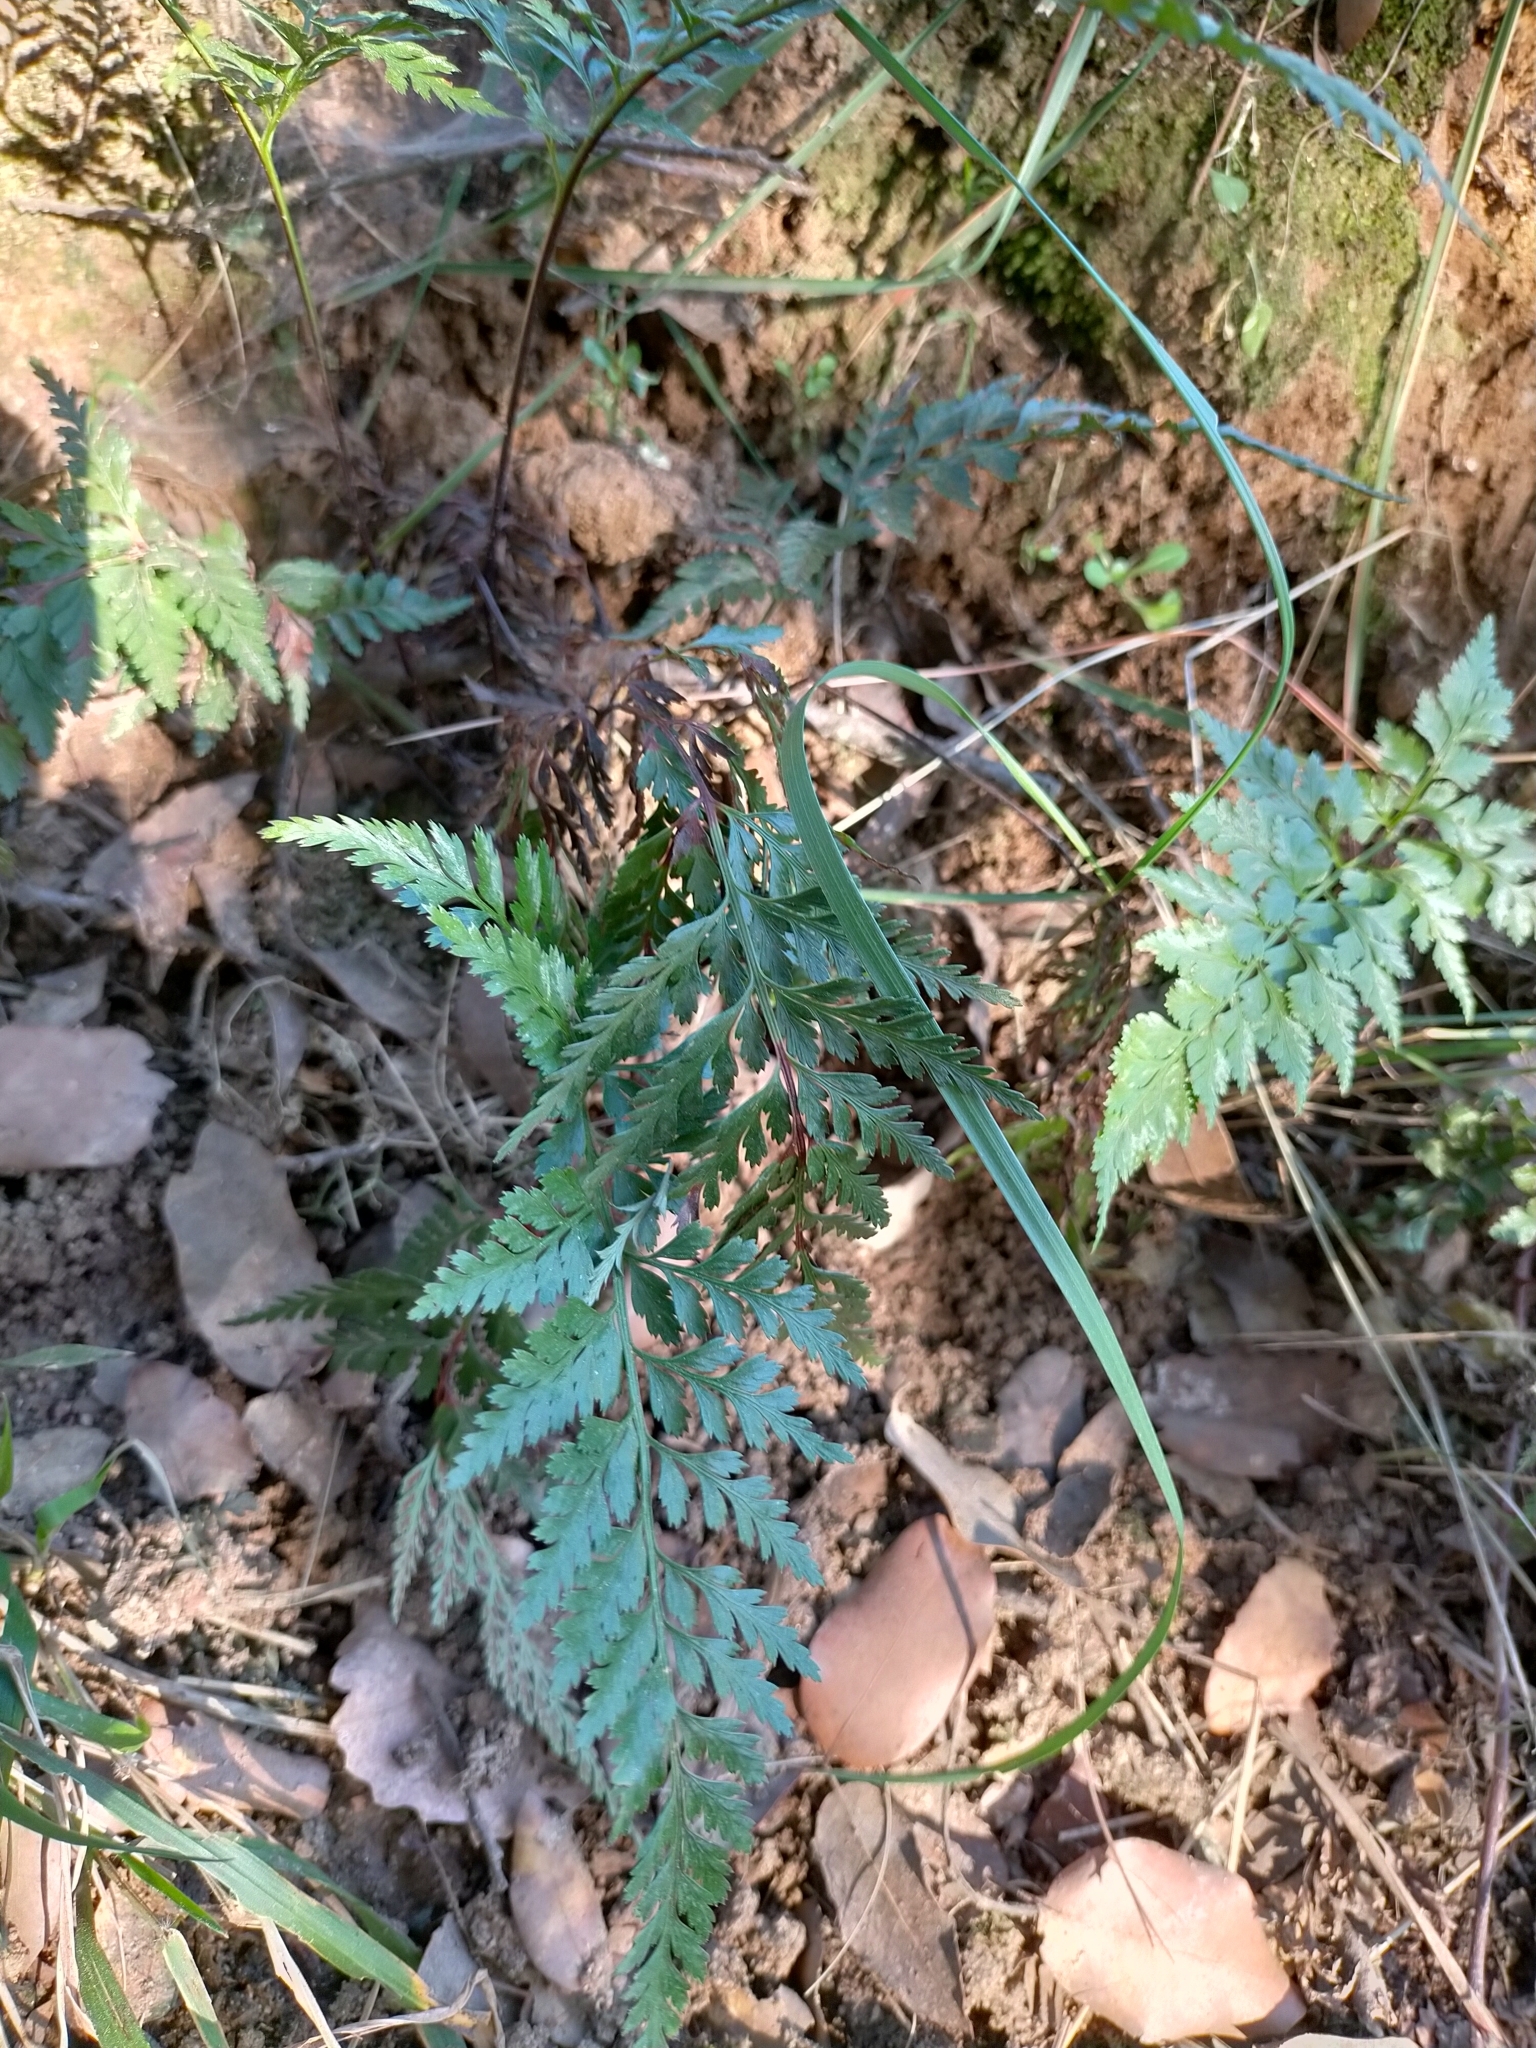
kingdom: Plantae
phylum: Tracheophyta
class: Polypodiopsida
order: Polypodiales
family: Aspleniaceae
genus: Asplenium
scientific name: Asplenium onopteris
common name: Irish spleenwort
